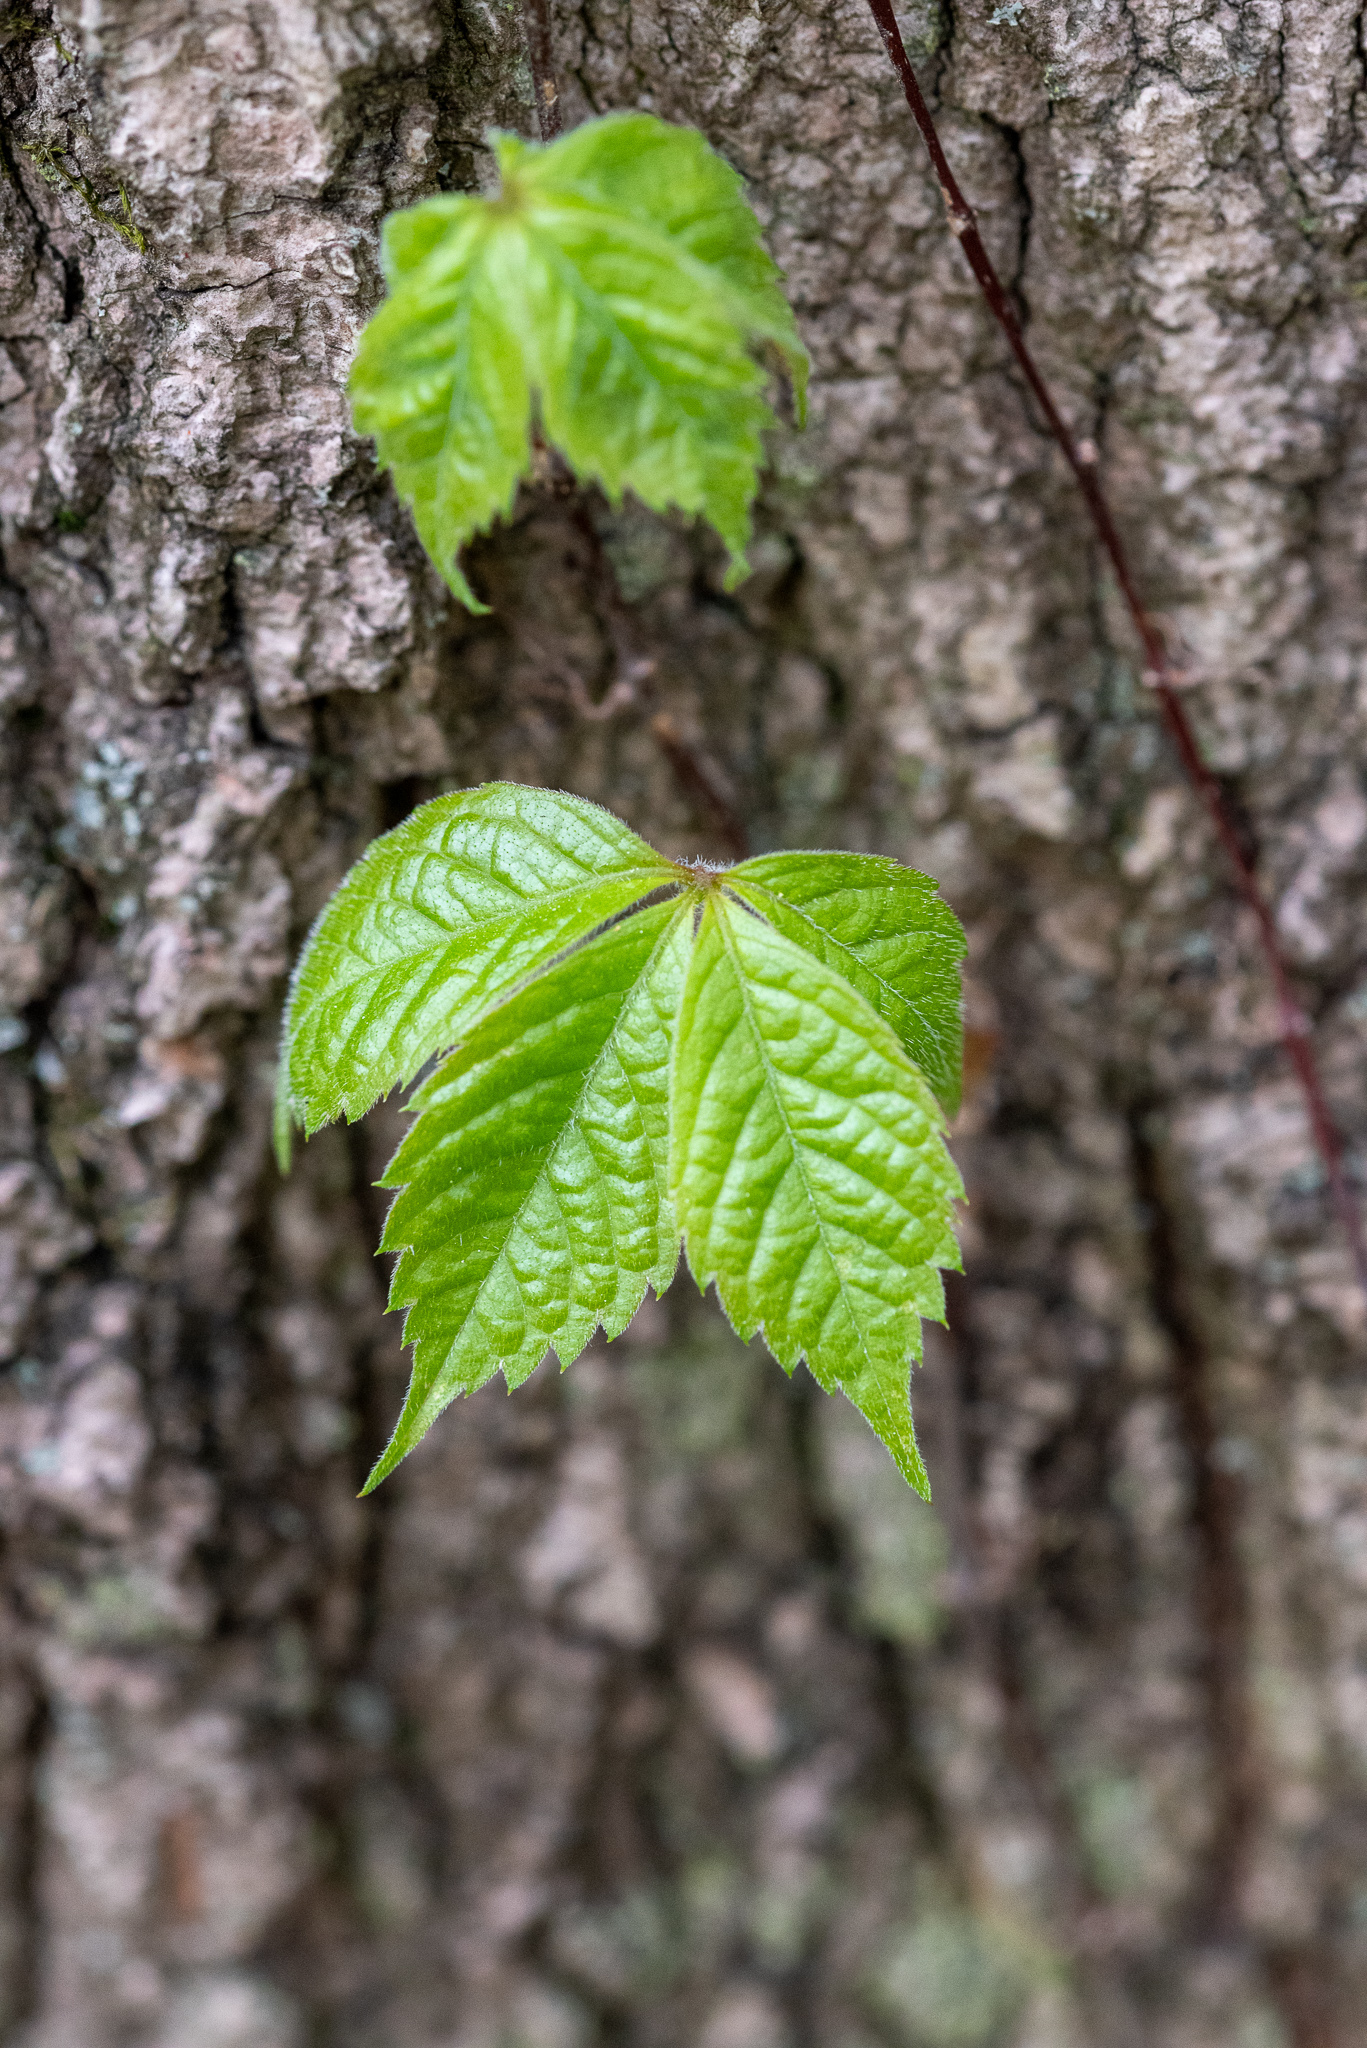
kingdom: Plantae
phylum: Tracheophyta
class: Magnoliopsida
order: Vitales
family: Vitaceae
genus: Parthenocissus
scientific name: Parthenocissus quinquefolia
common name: Virginia-creeper
